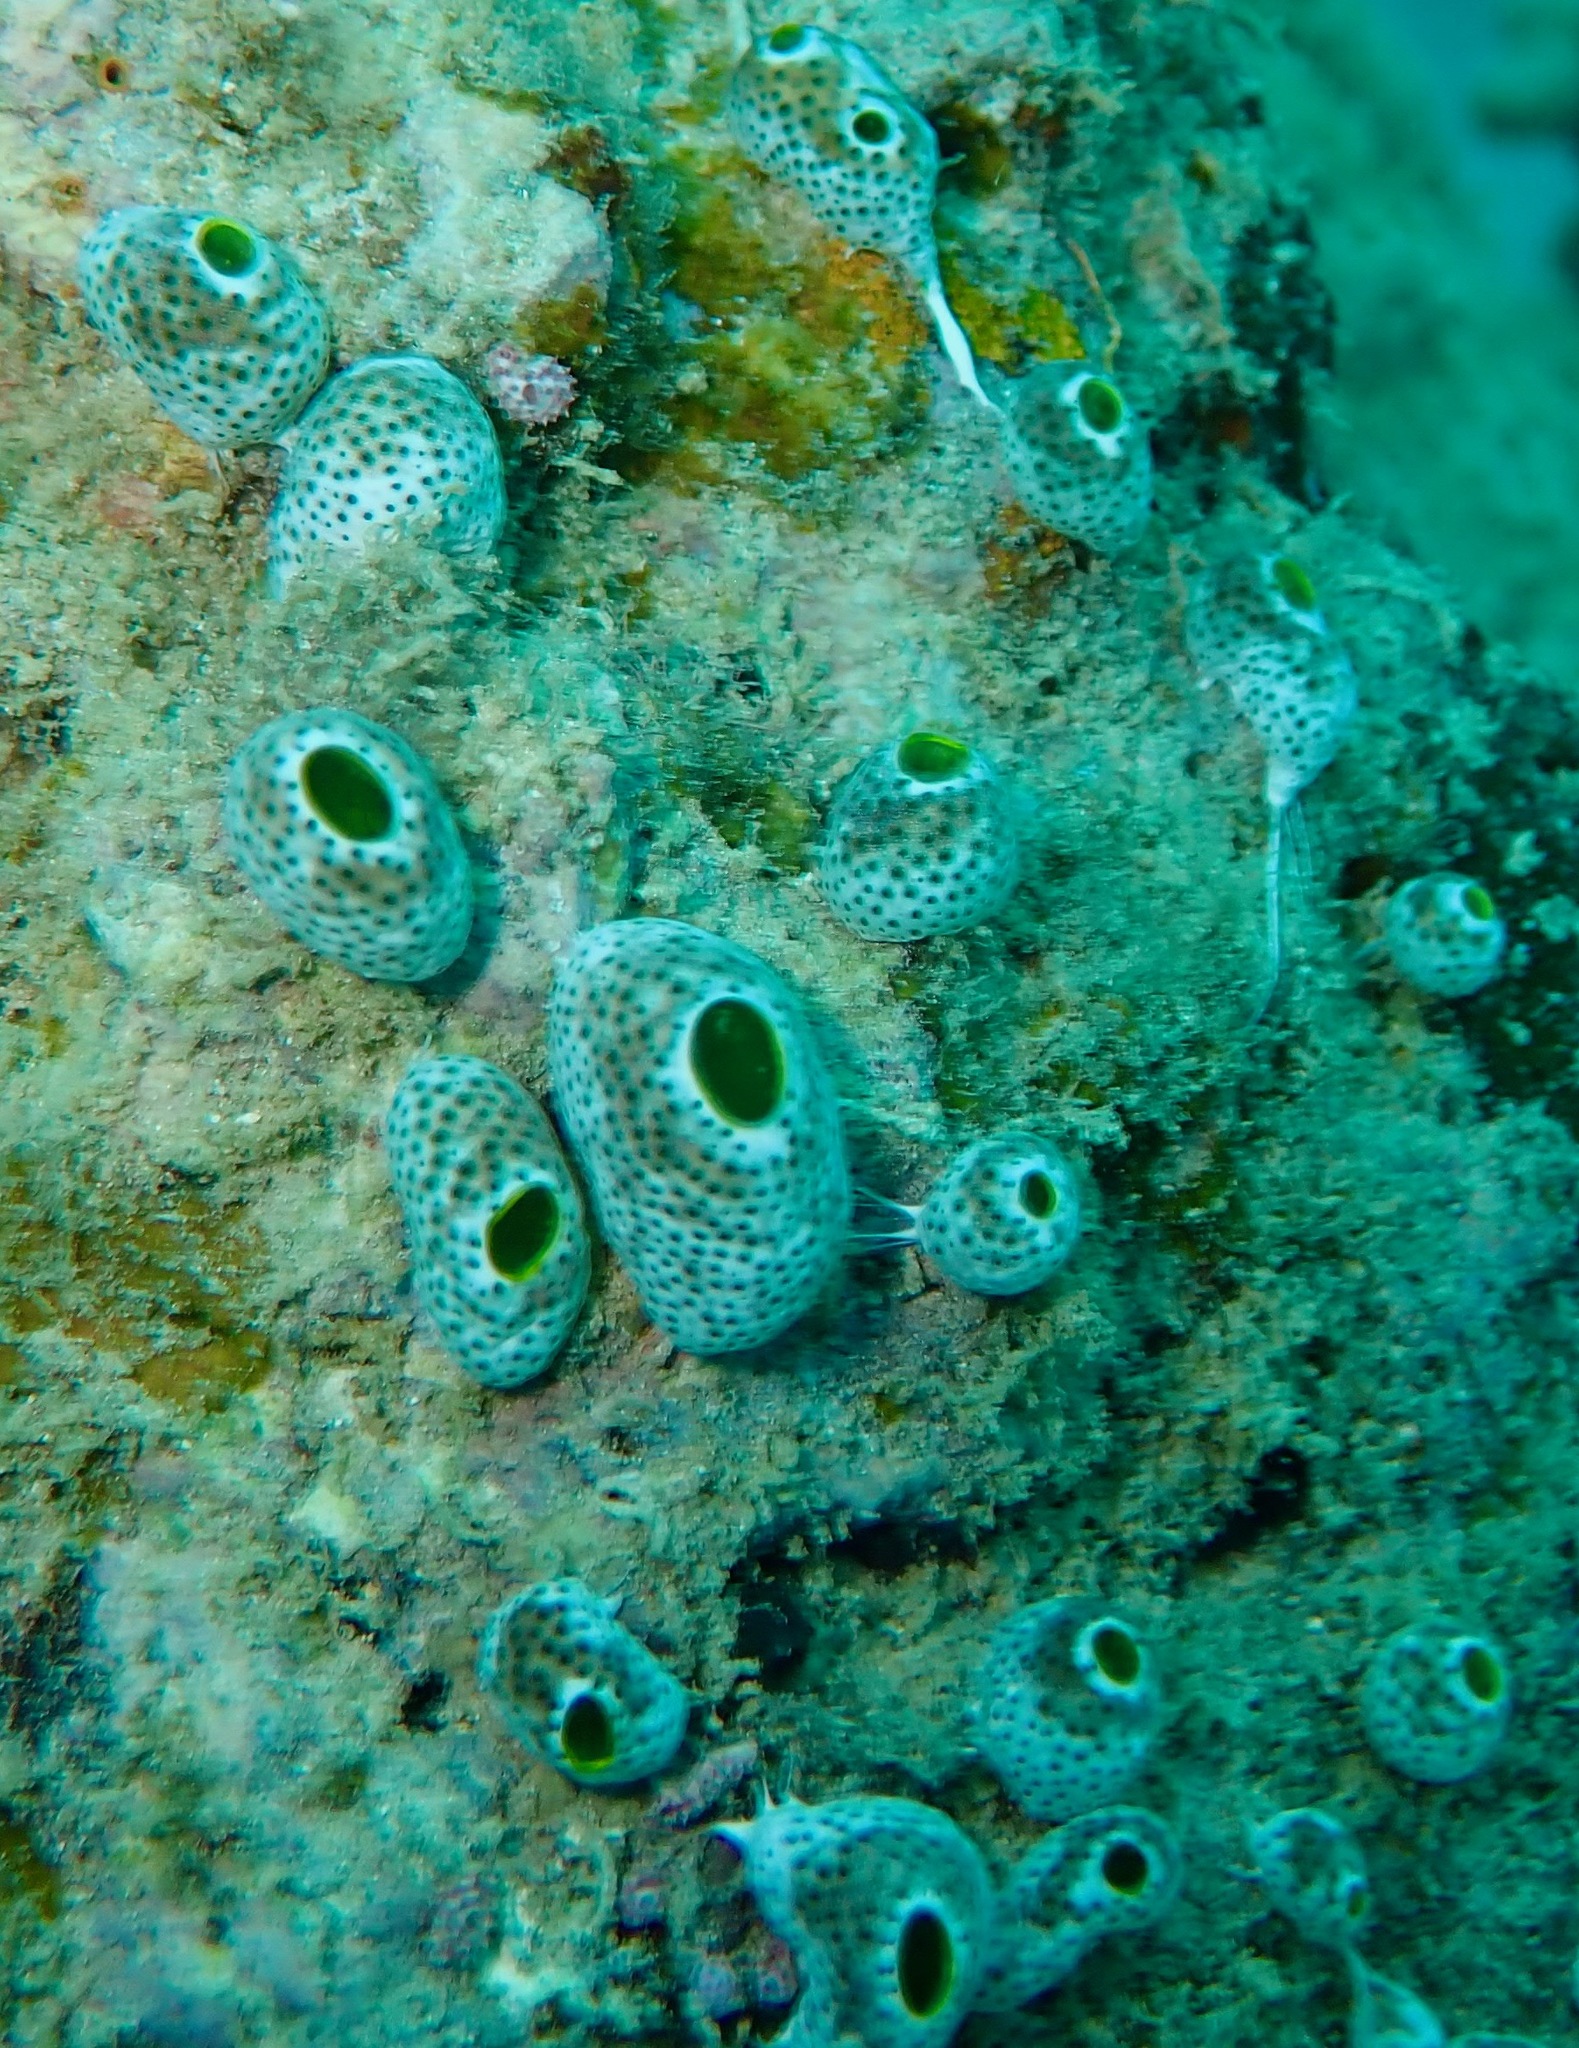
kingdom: Animalia
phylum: Chordata
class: Ascidiacea
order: Aplousobranchia
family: Didemnidae
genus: Didemnum
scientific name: Didemnum molle
